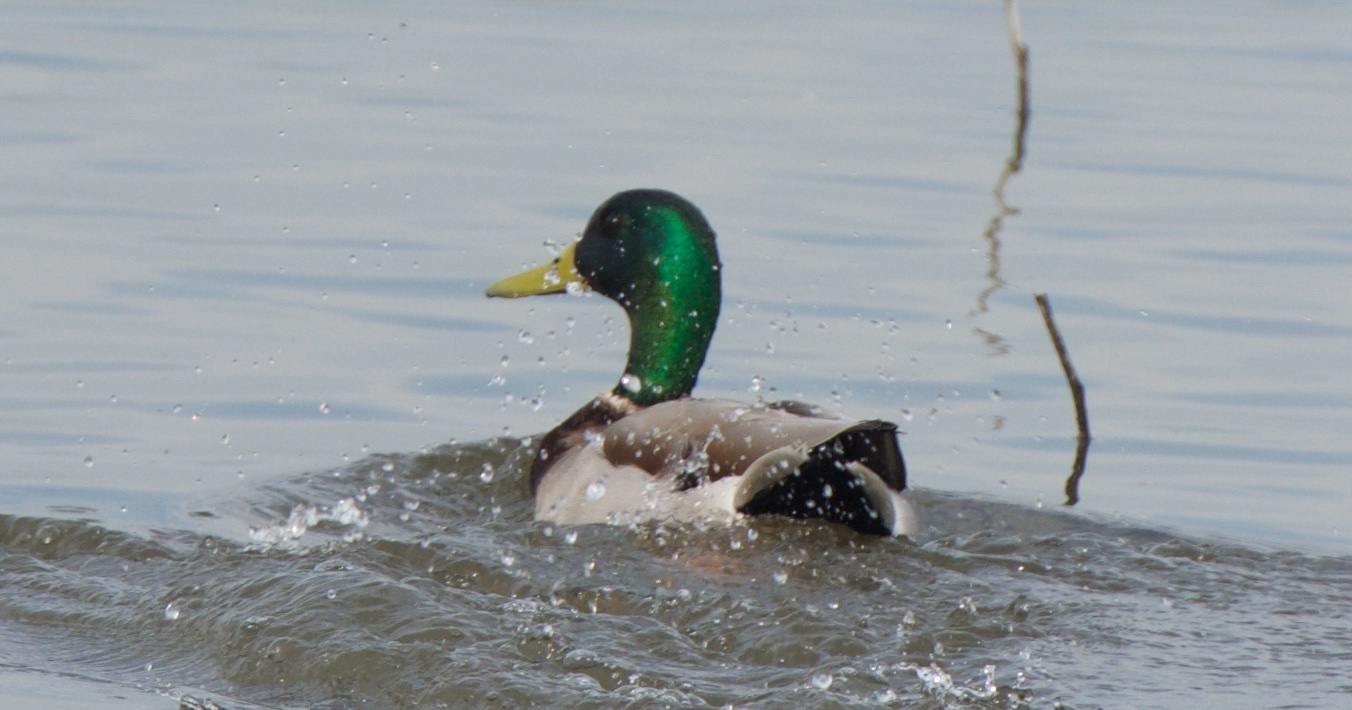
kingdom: Animalia
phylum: Chordata
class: Aves
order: Anseriformes
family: Anatidae
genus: Anas
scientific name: Anas platyrhynchos
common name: Mallard
